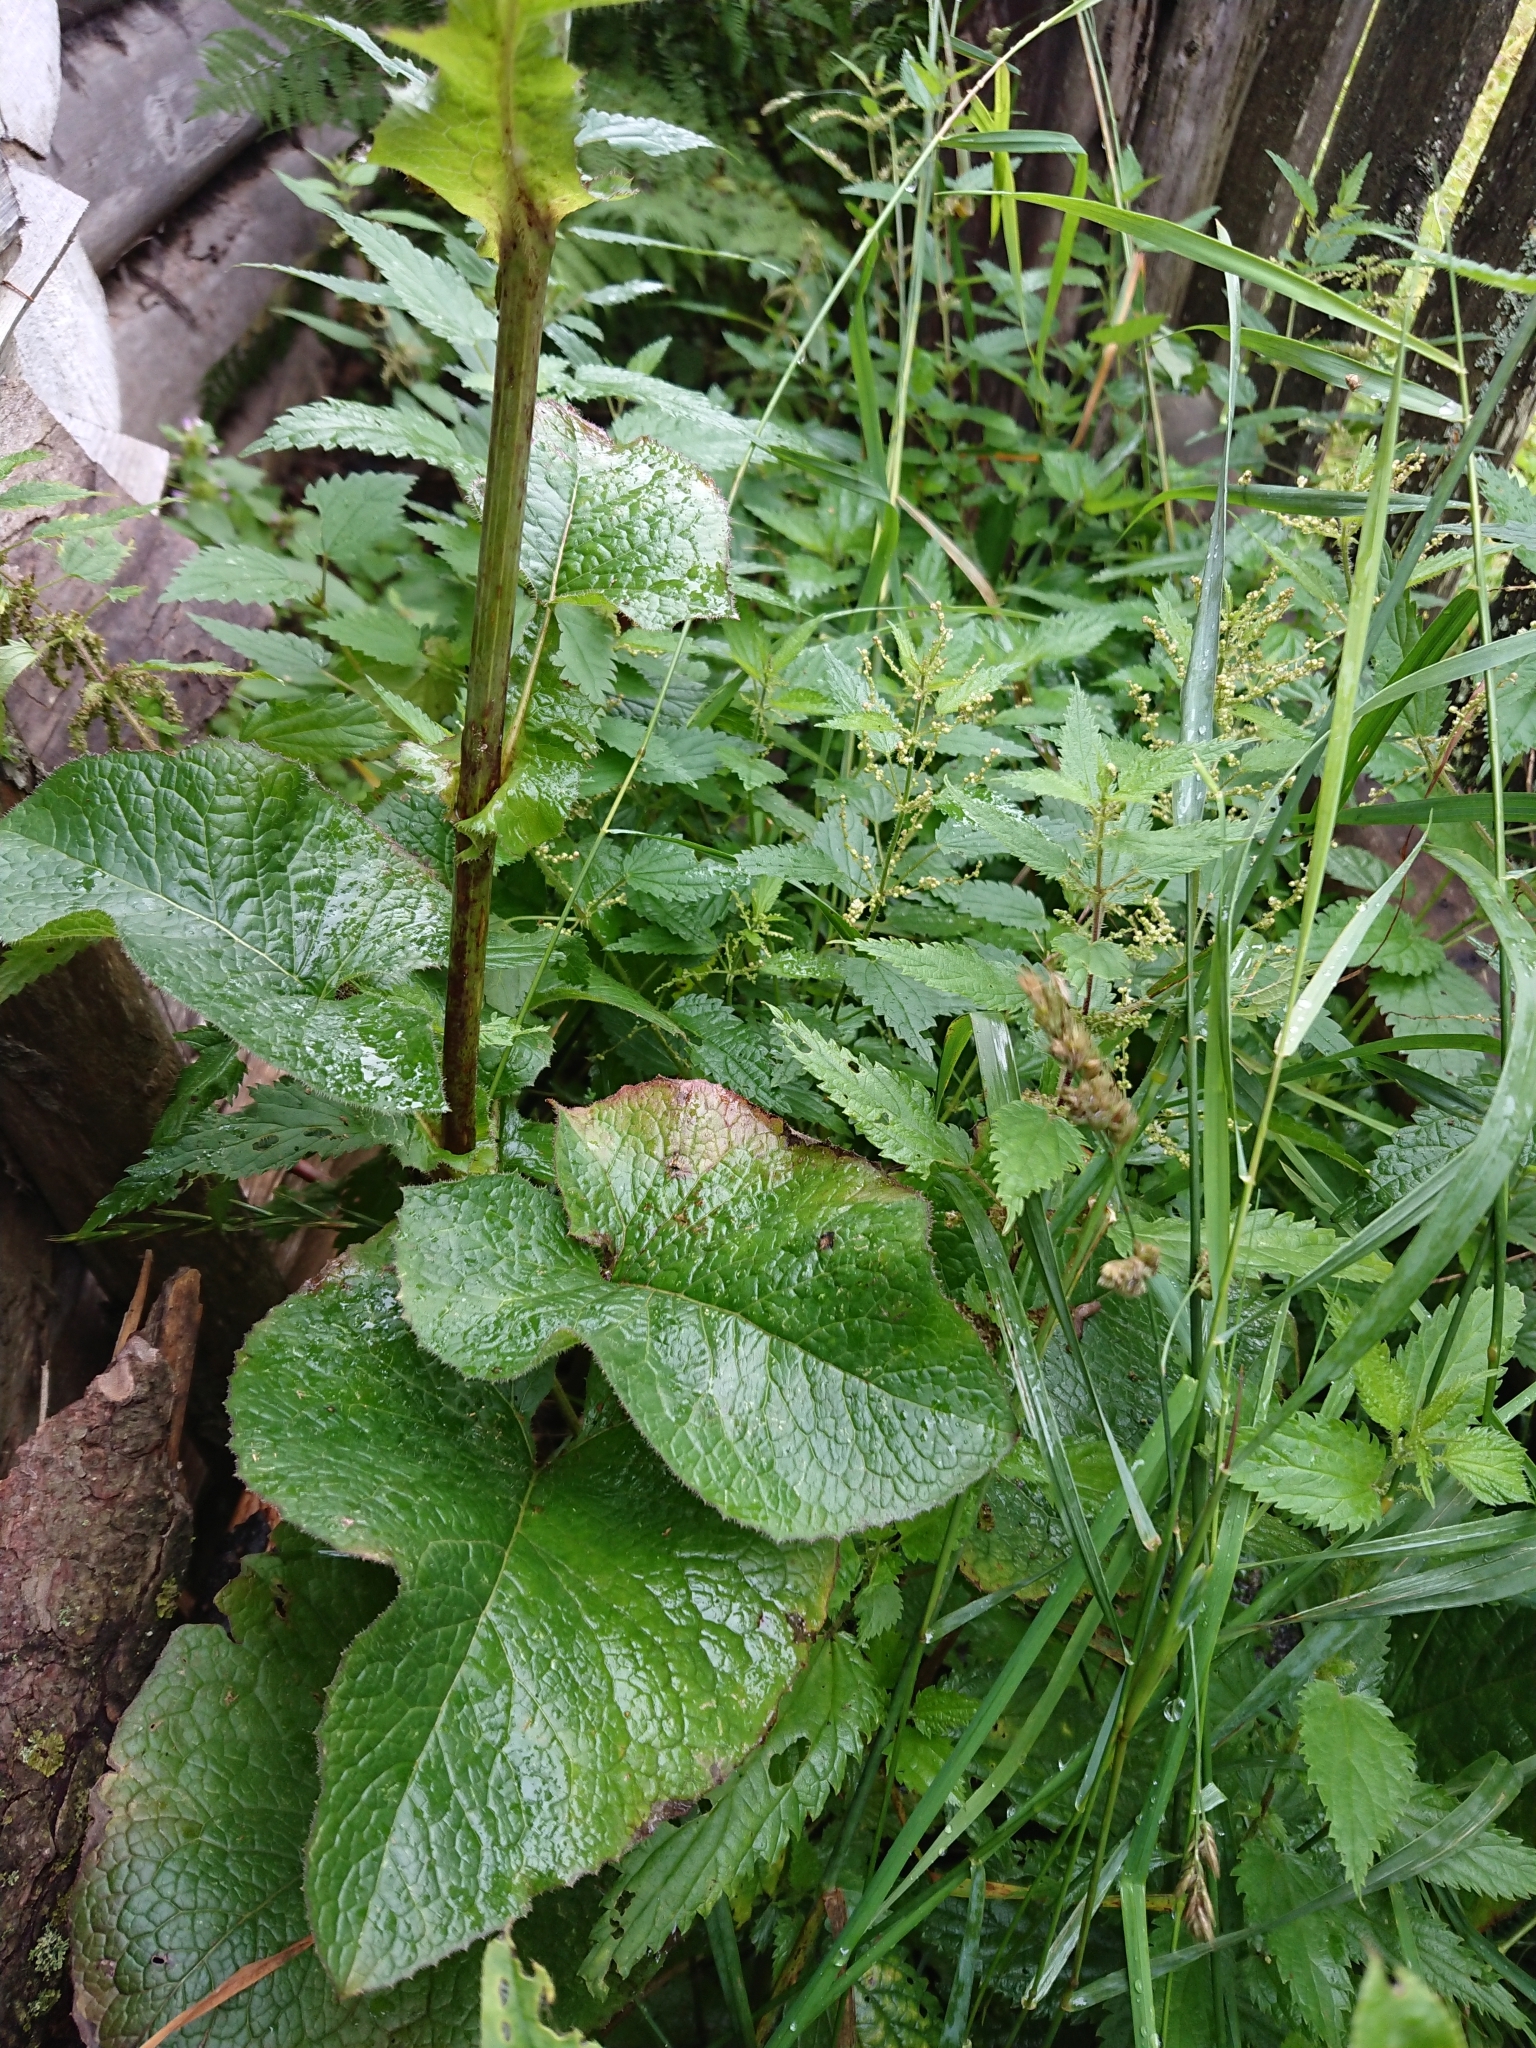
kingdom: Plantae
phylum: Tracheophyta
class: Magnoliopsida
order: Asterales
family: Asteraceae
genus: Lactuca
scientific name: Lactuca macrophylla
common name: Common blue-sow-thistle
